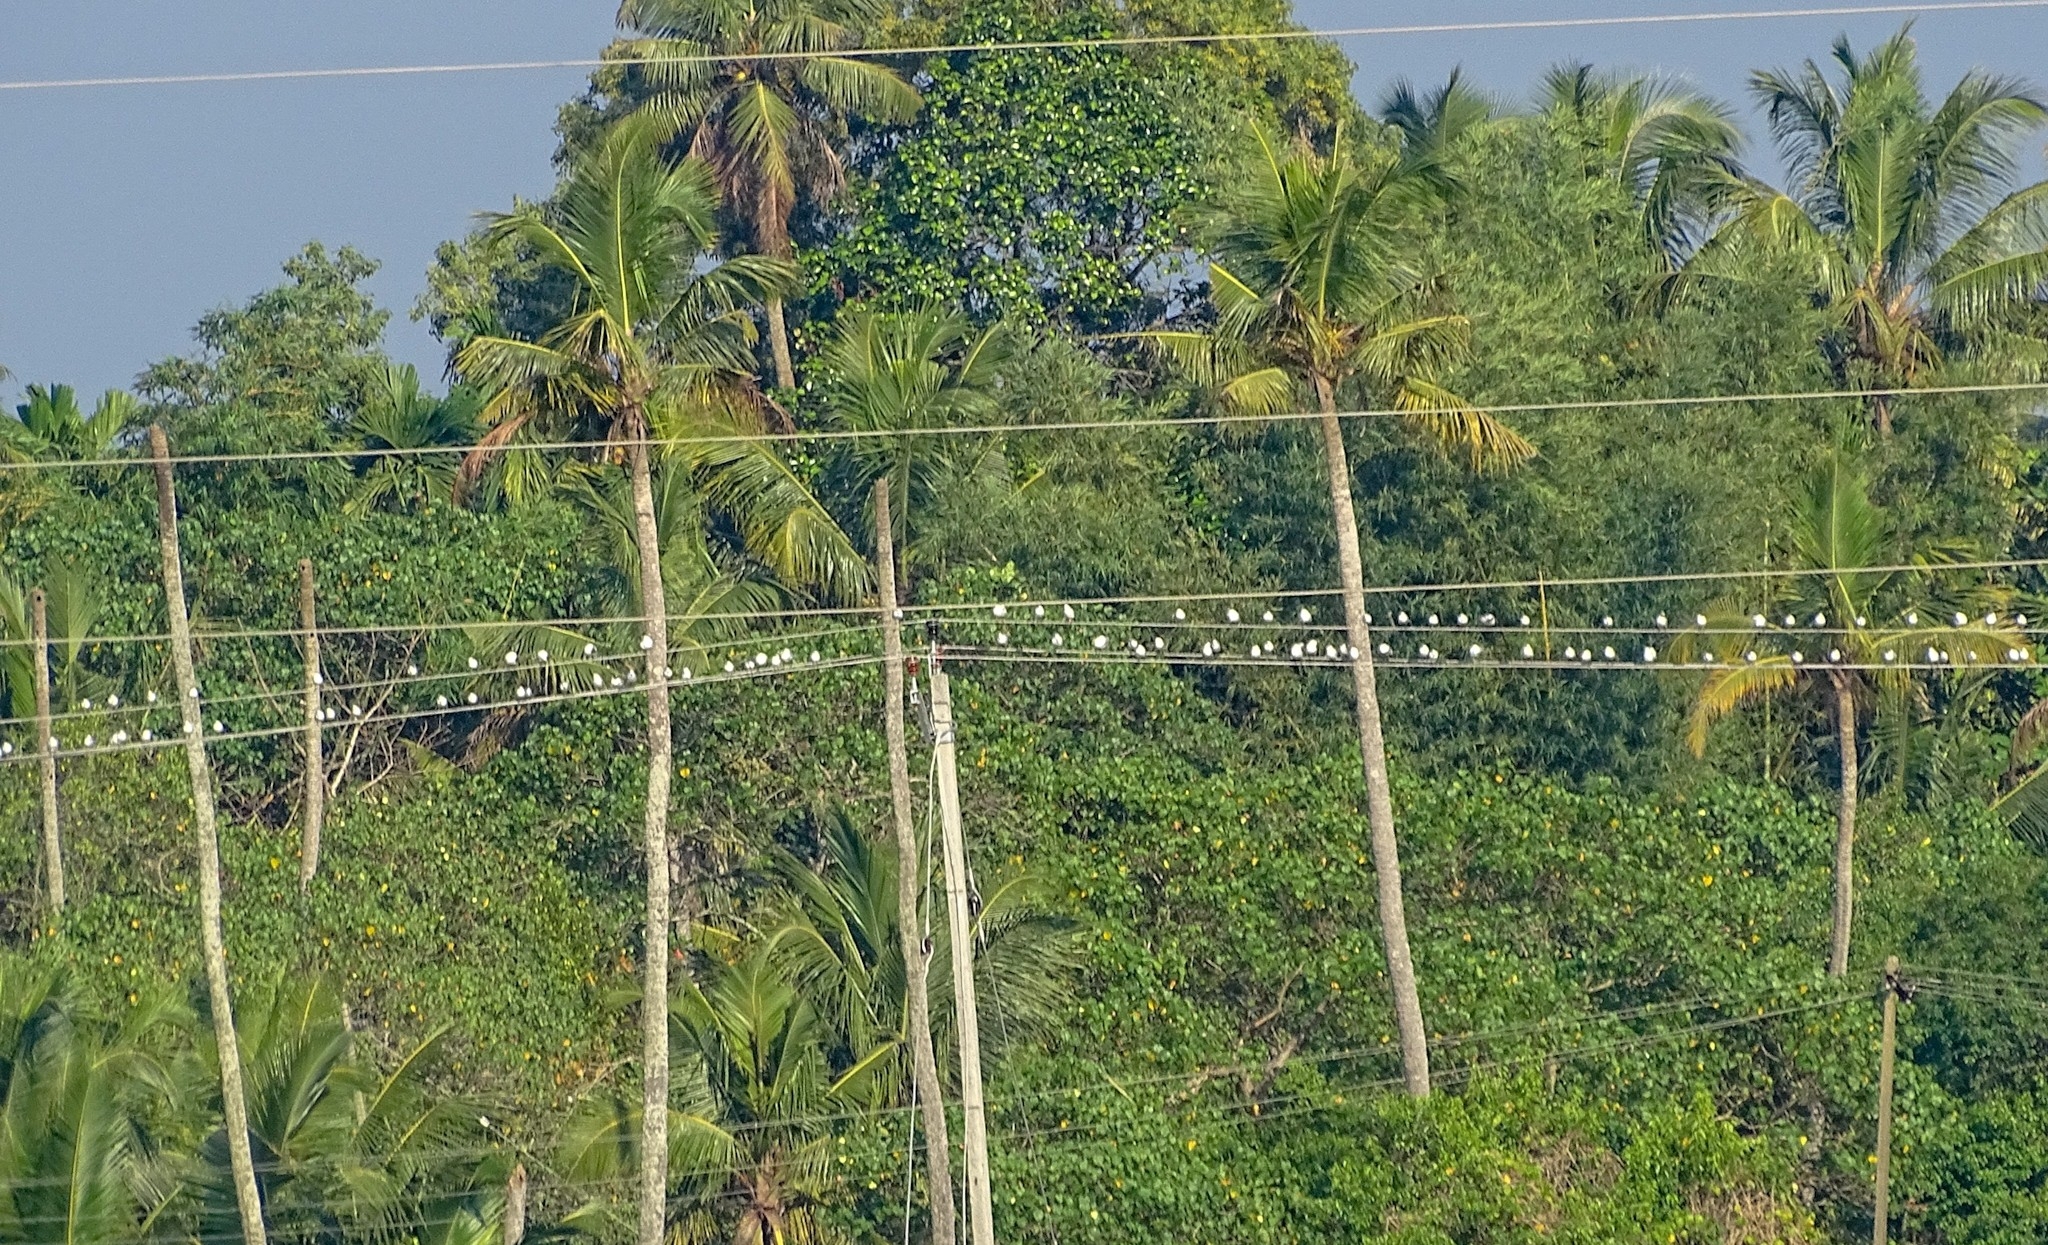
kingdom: Animalia
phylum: Chordata
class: Aves
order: Charadriiformes
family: Laridae
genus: Chlidonias
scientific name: Chlidonias hybrida
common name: Whiskered tern
